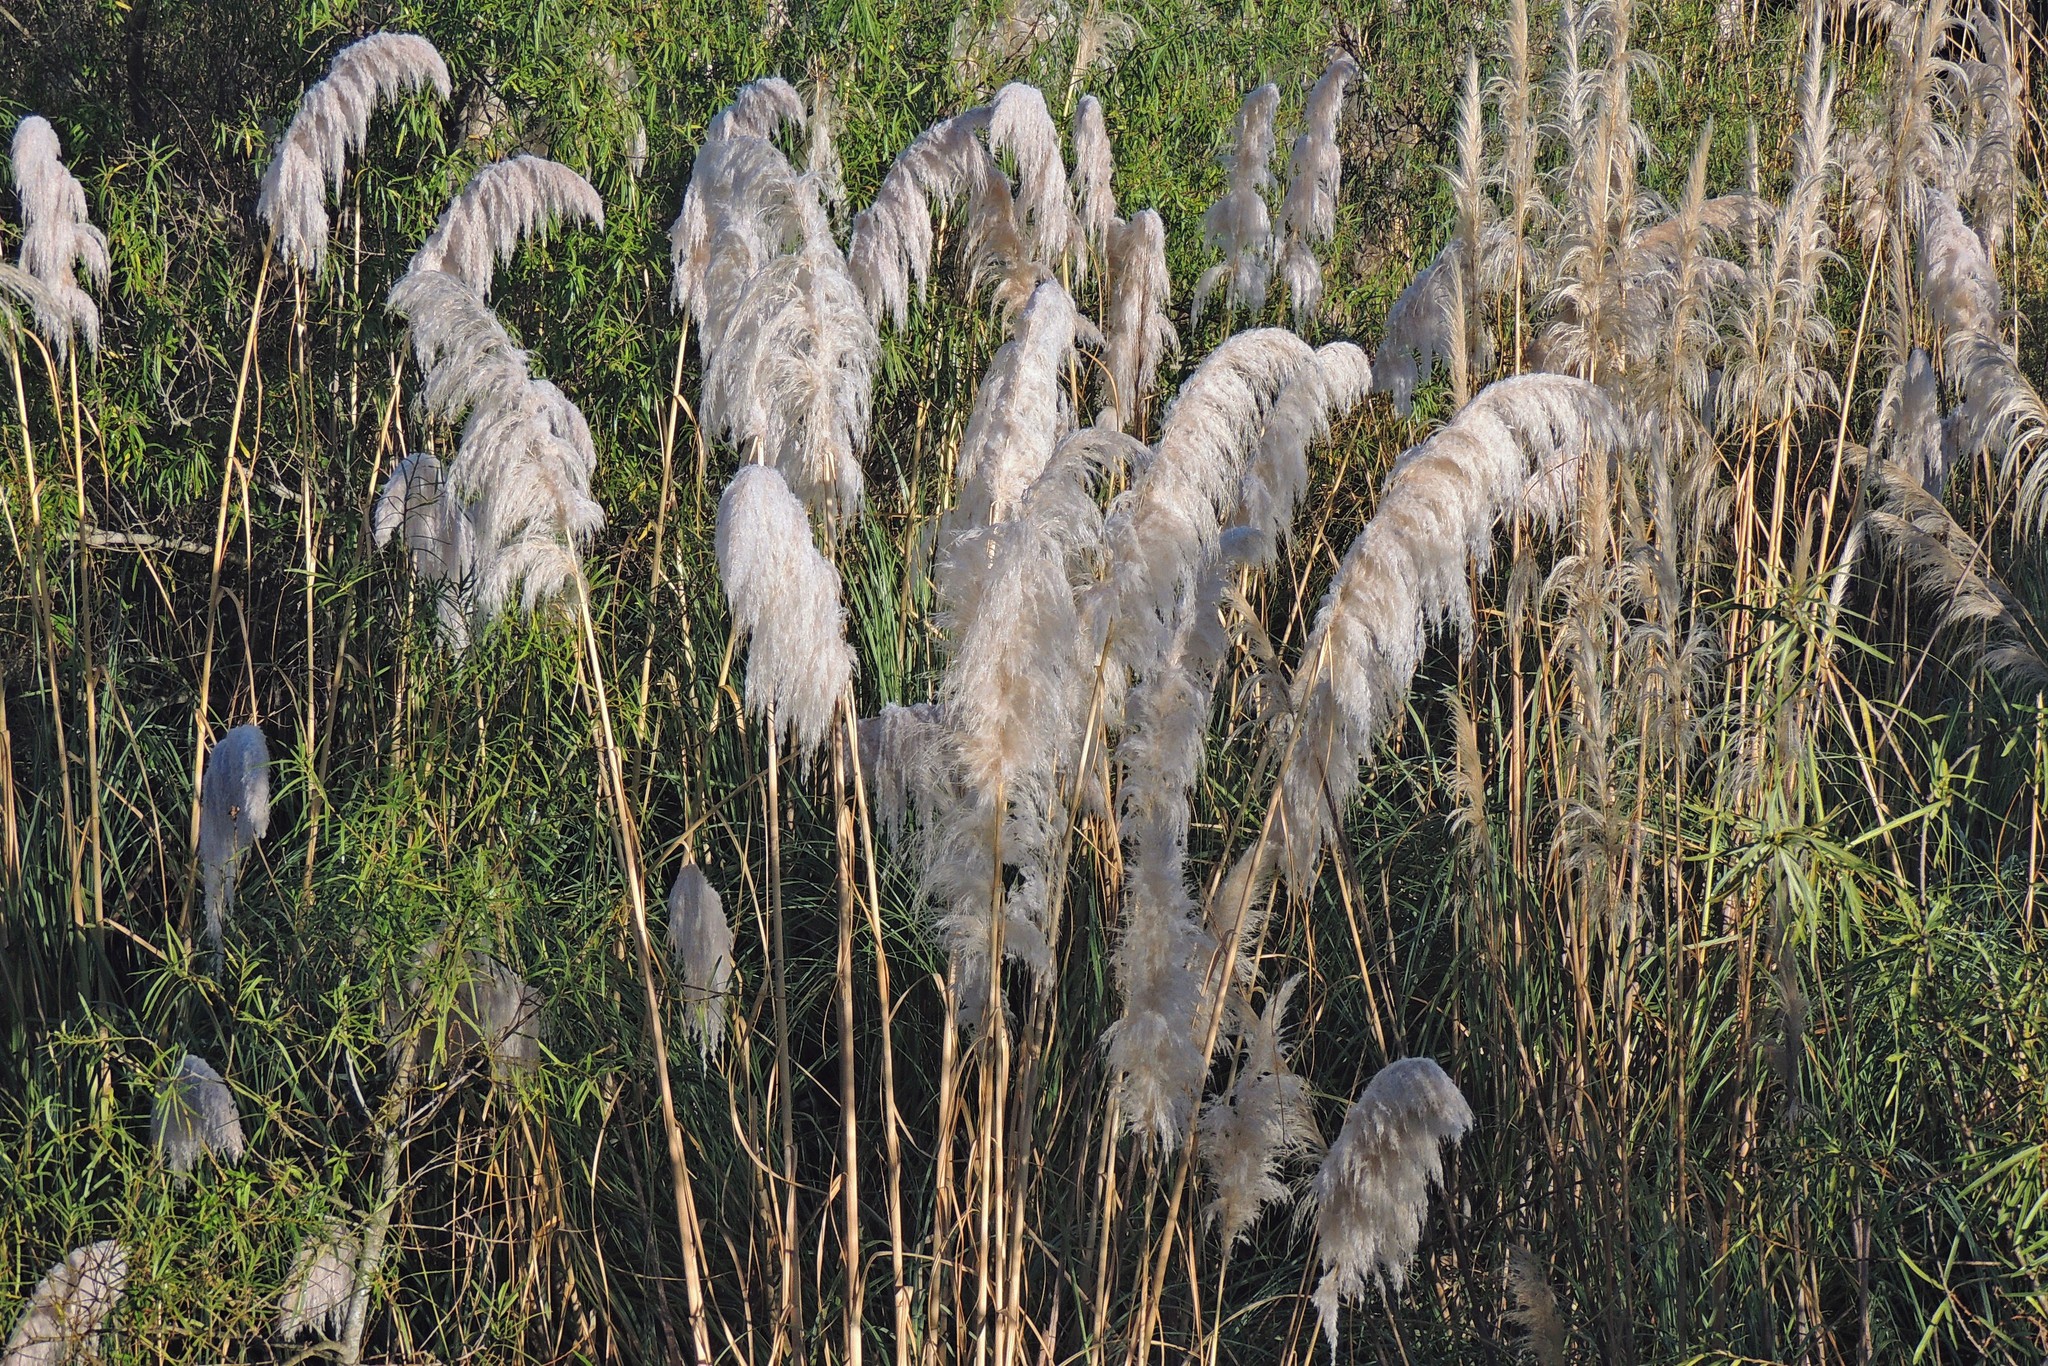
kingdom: Plantae
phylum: Tracheophyta
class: Liliopsida
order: Poales
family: Poaceae
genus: Cortaderia
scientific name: Cortaderia selloana
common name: Uruguayan pampas grass
